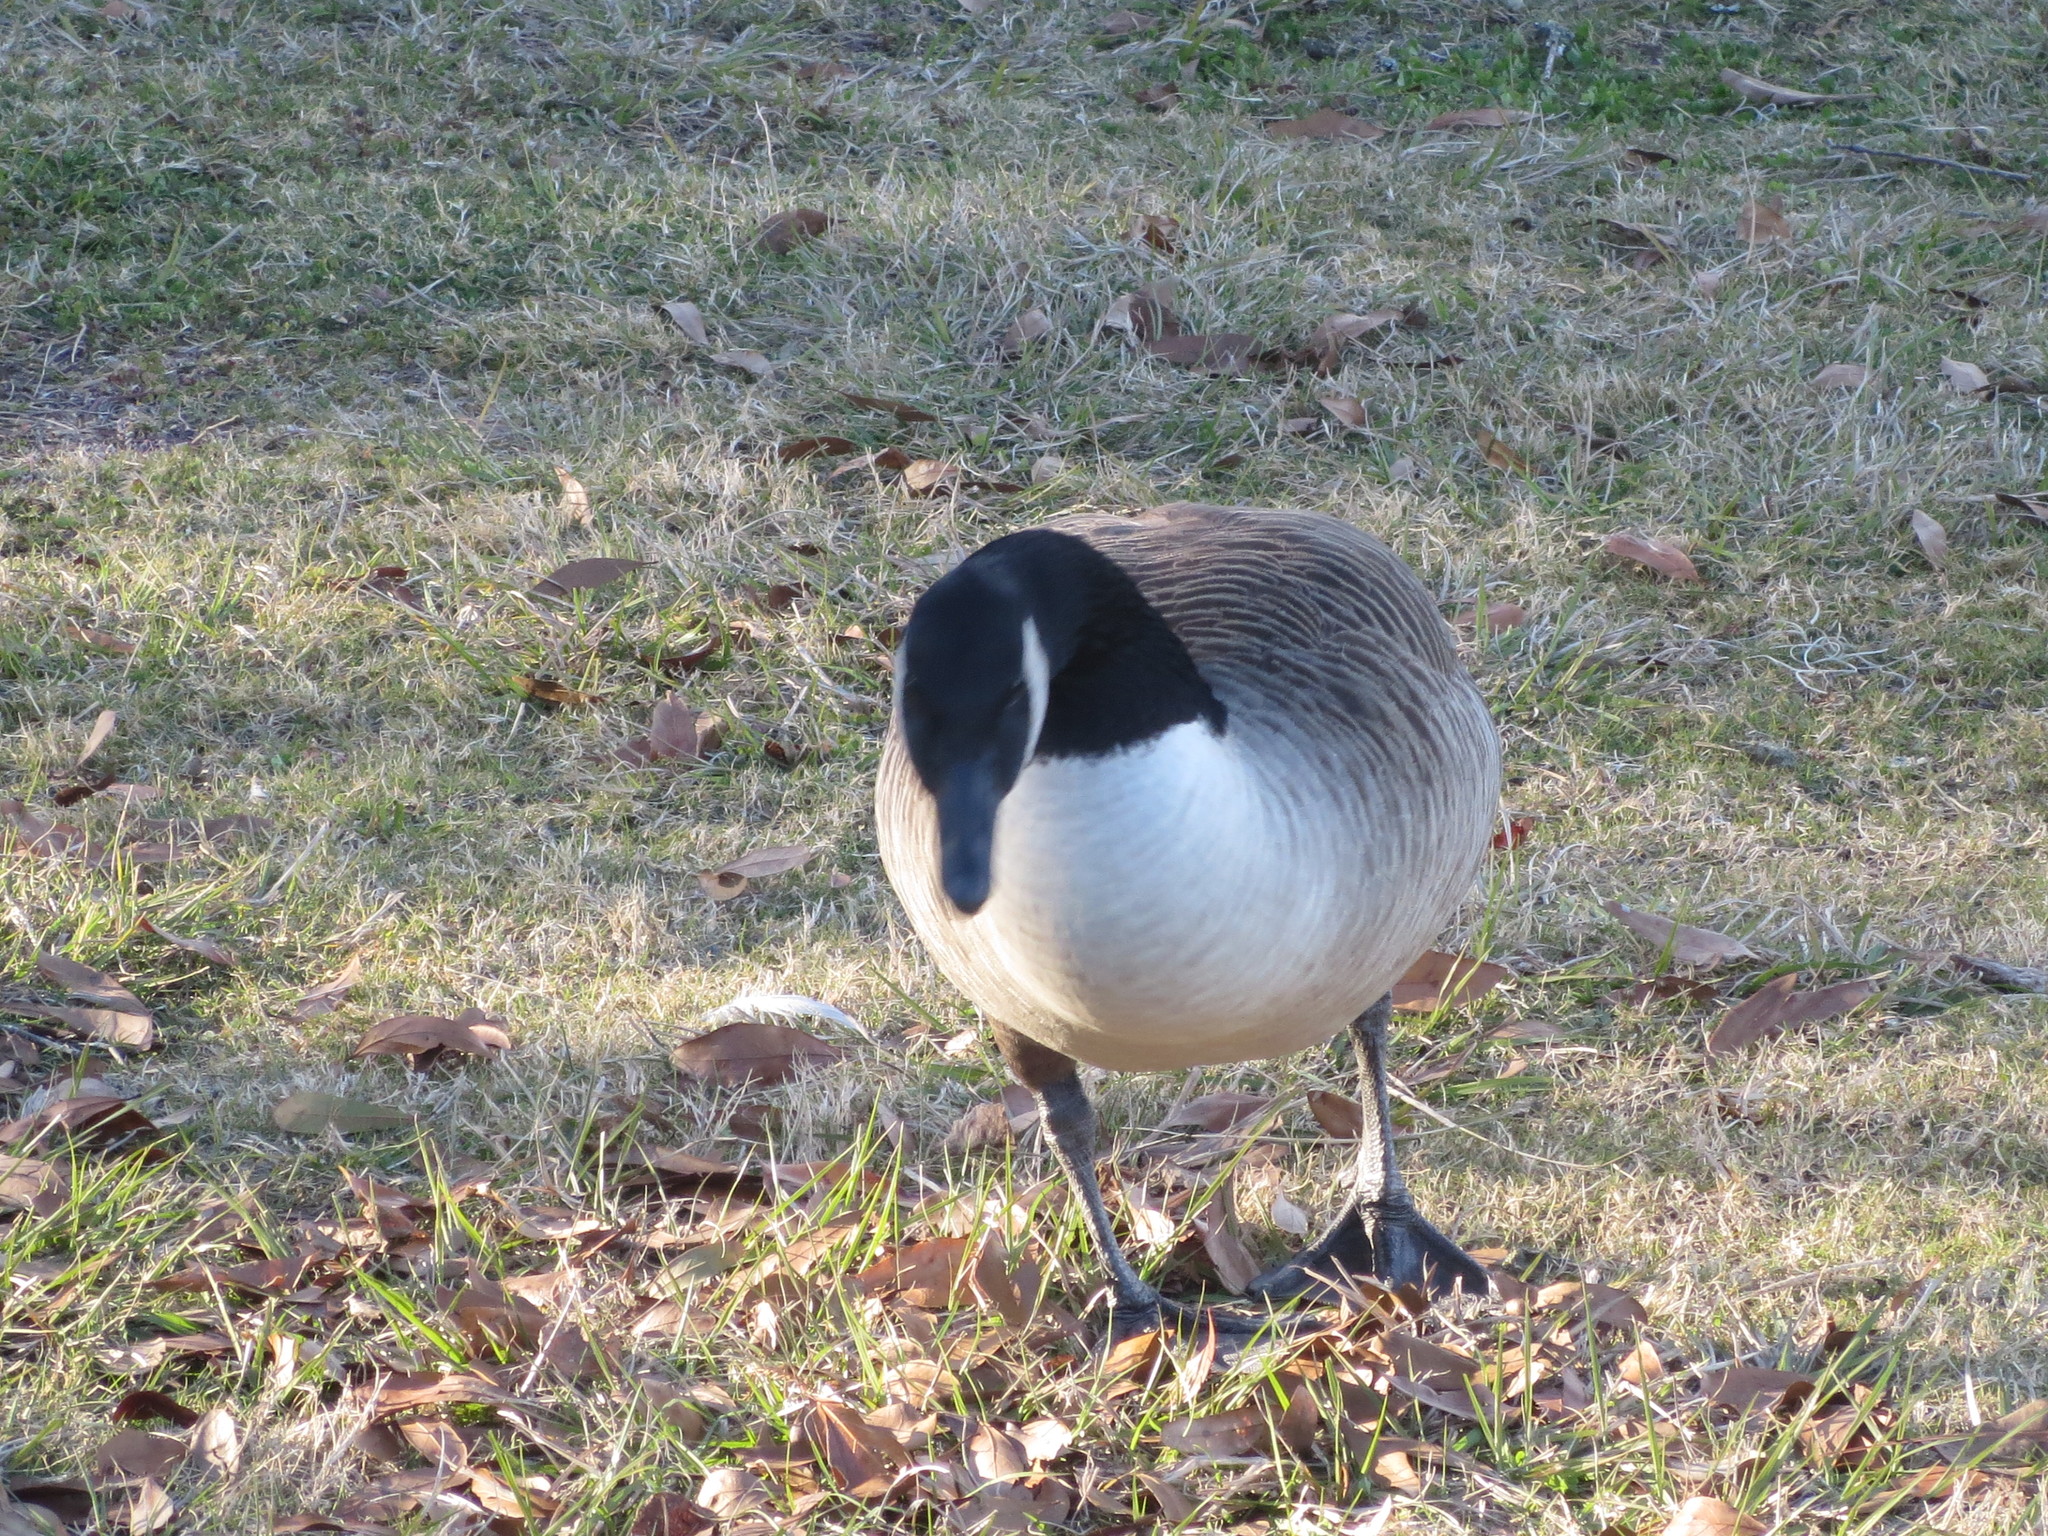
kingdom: Animalia
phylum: Chordata
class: Aves
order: Anseriformes
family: Anatidae
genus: Branta
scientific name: Branta canadensis
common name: Canada goose
